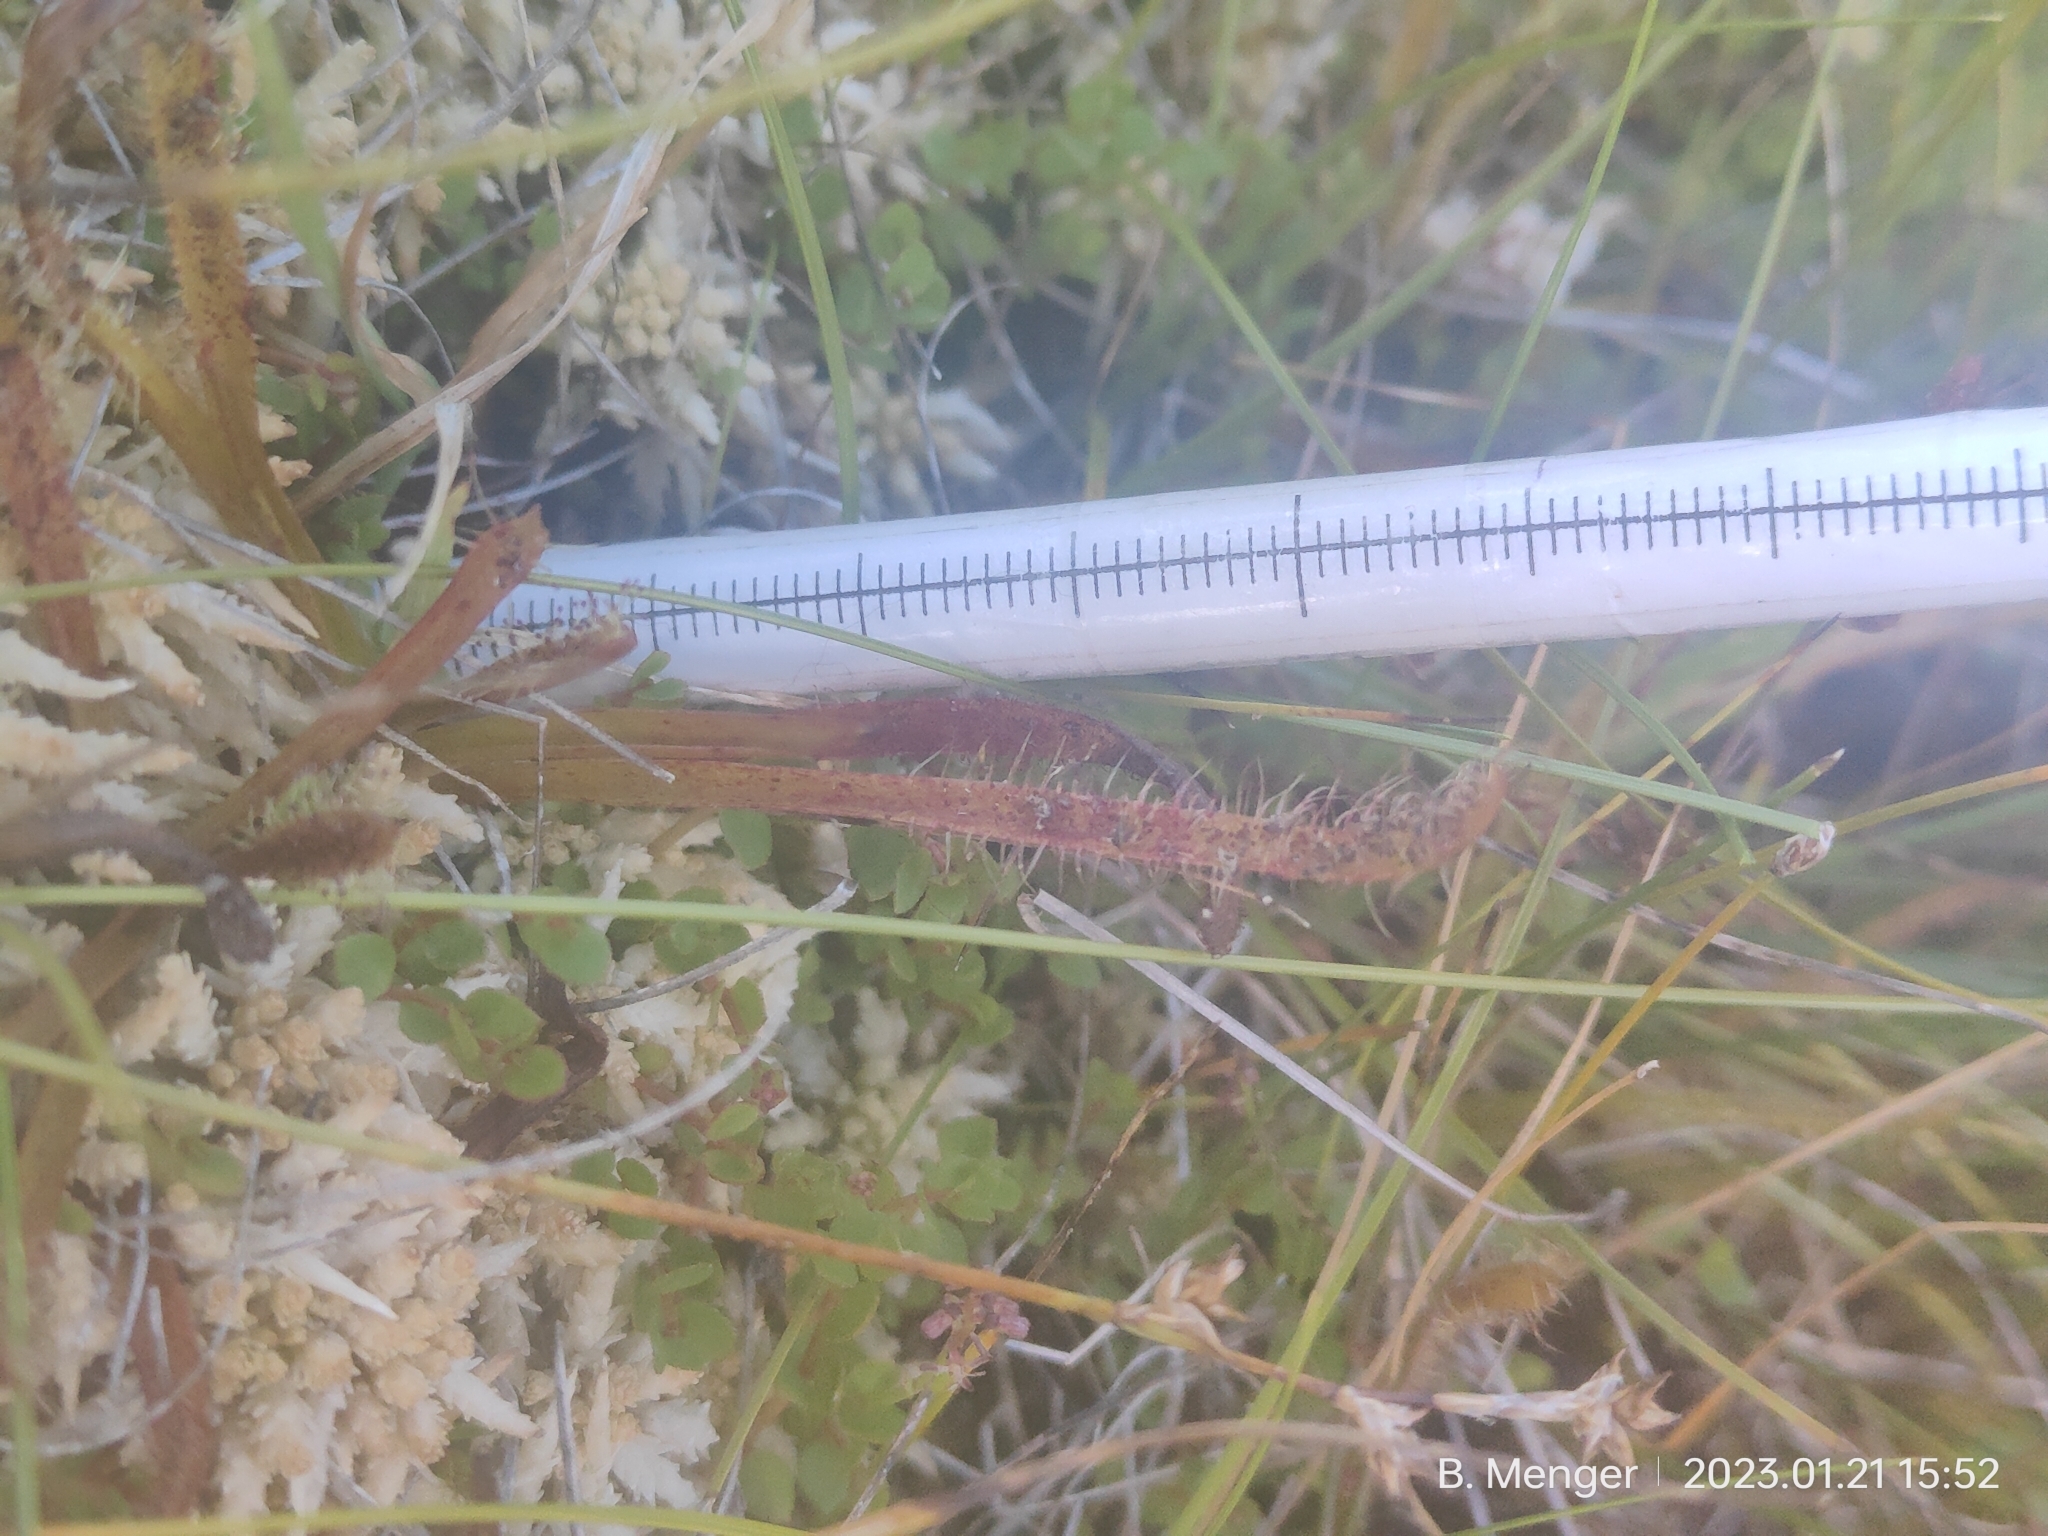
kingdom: Plantae
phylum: Tracheophyta
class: Magnoliopsida
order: Caryophyllales
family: Droseraceae
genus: Drosera
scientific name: Drosera arcturi
